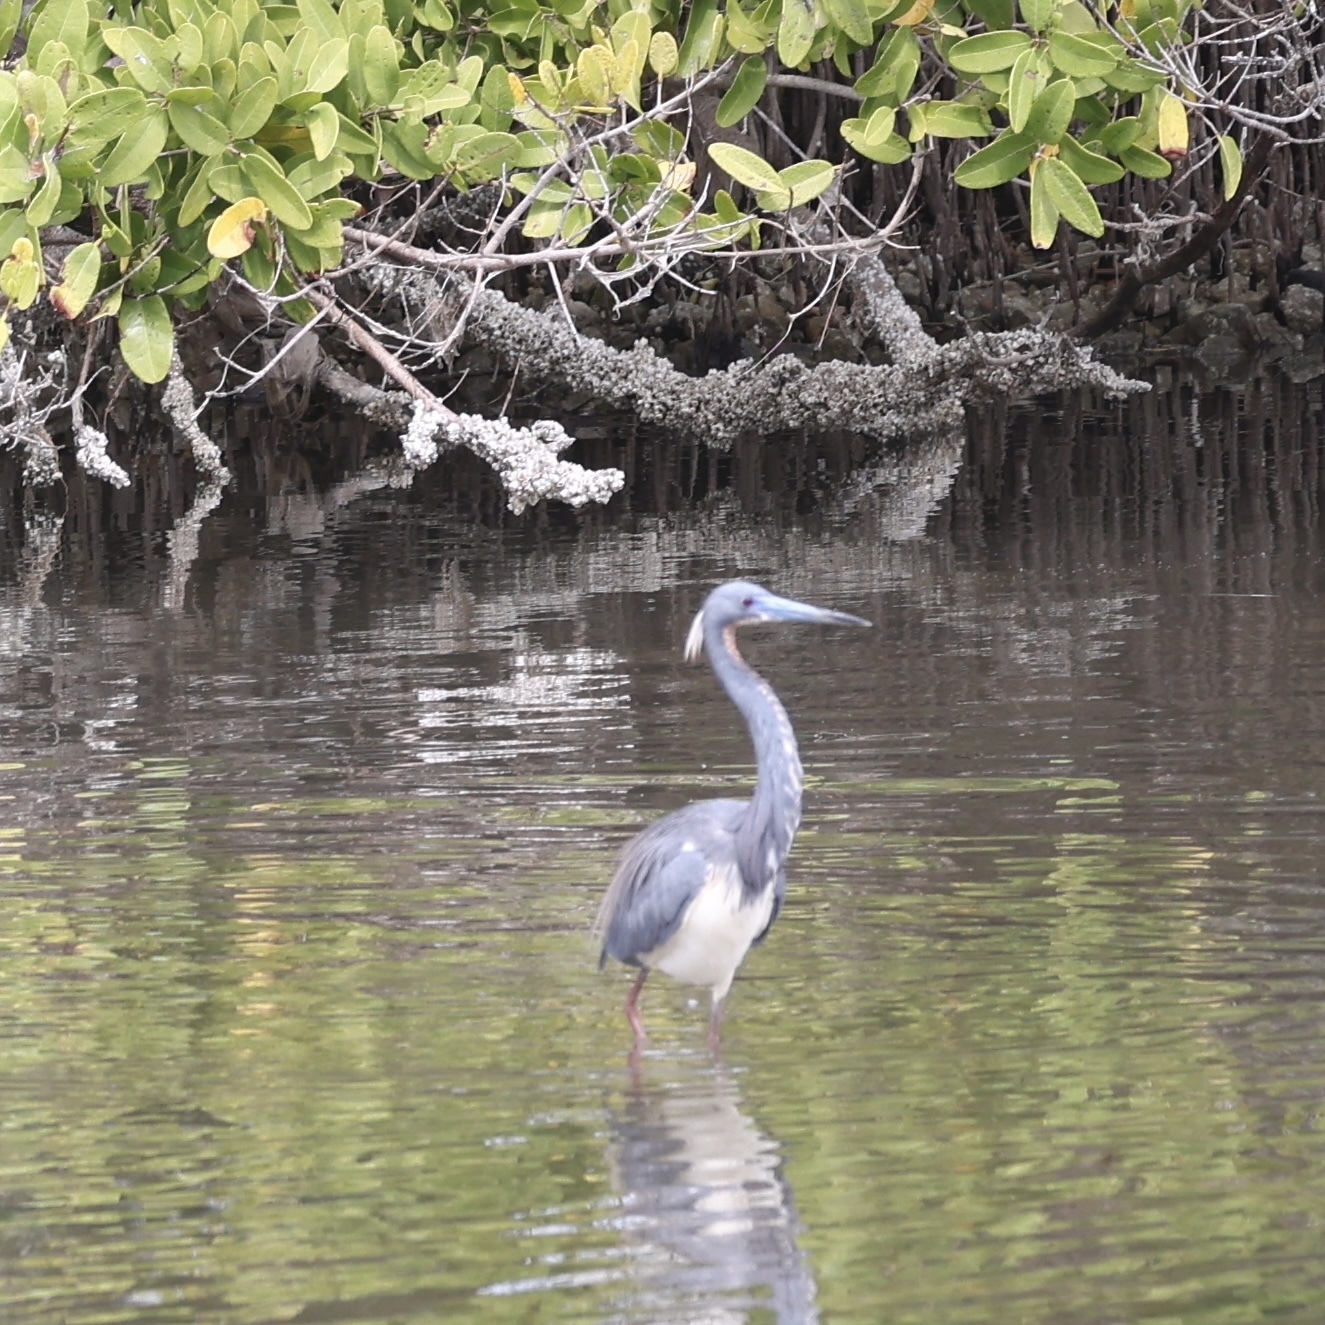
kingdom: Animalia
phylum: Chordata
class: Aves
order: Pelecaniformes
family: Ardeidae
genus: Egretta
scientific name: Egretta tricolor
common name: Tricolored heron
